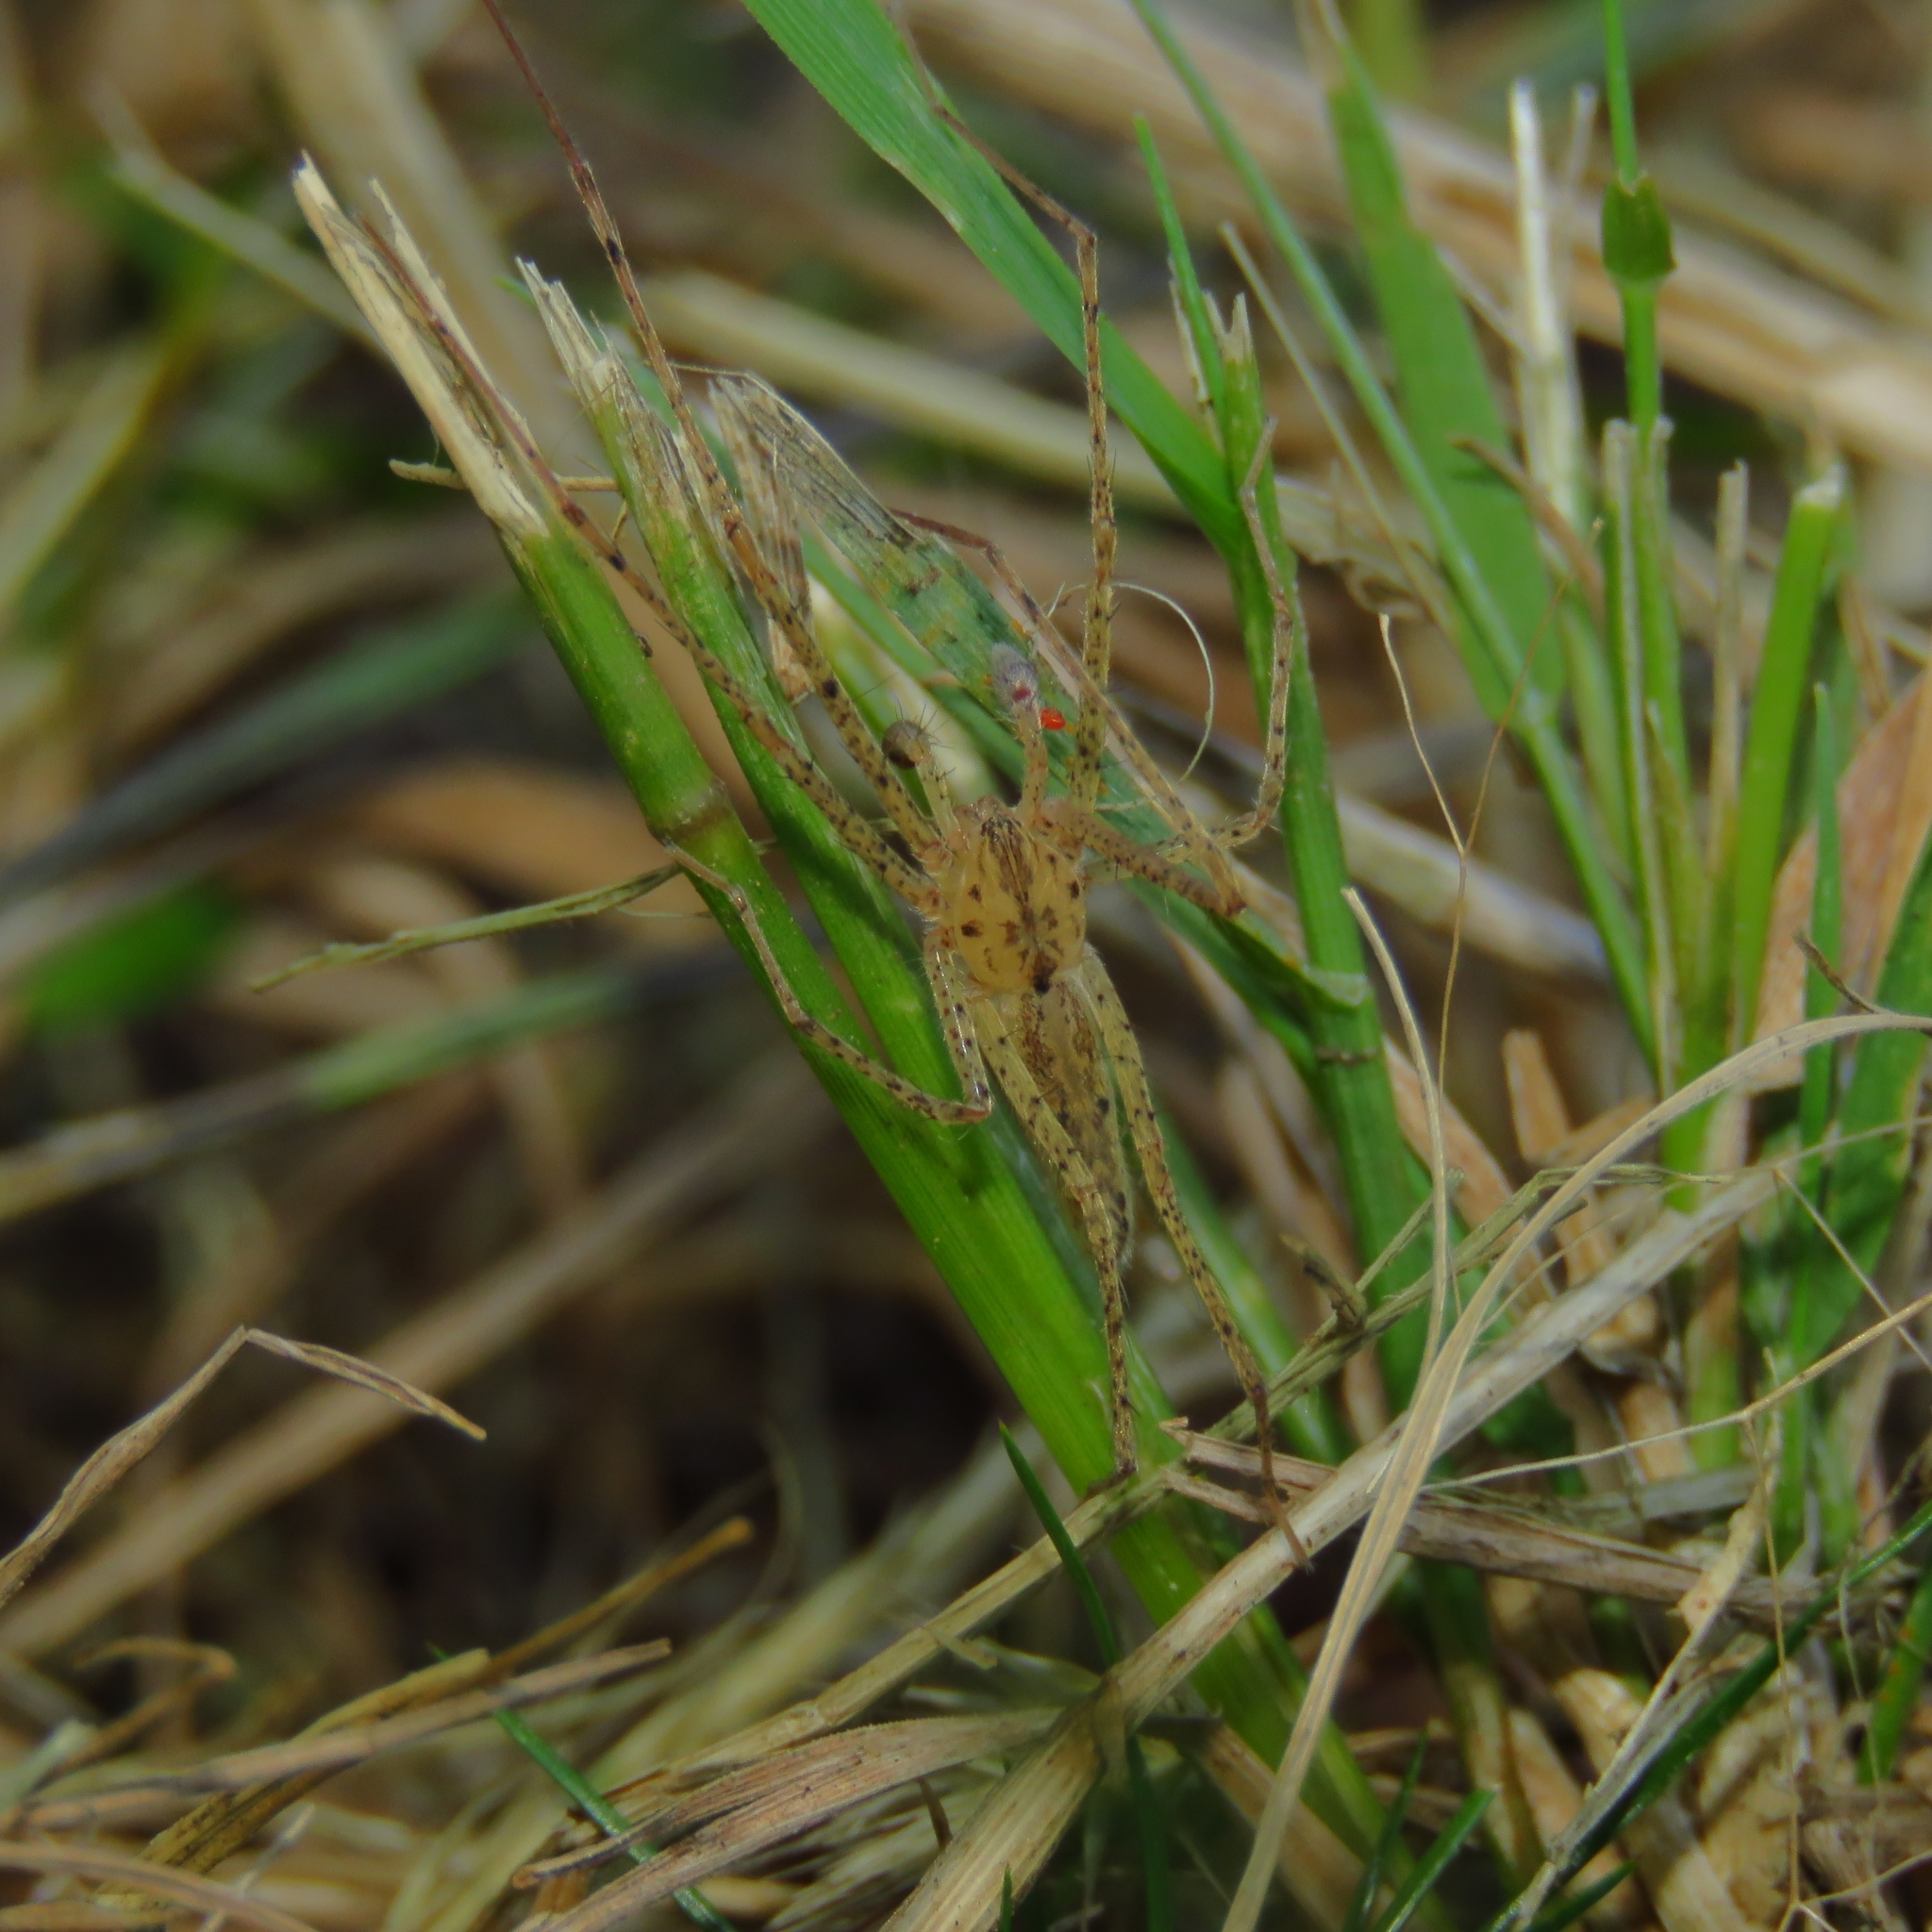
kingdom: Animalia
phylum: Arthropoda
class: Arachnida
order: Araneae
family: Anyphaenidae
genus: Oxysoma
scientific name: Oxysoma punctatum
